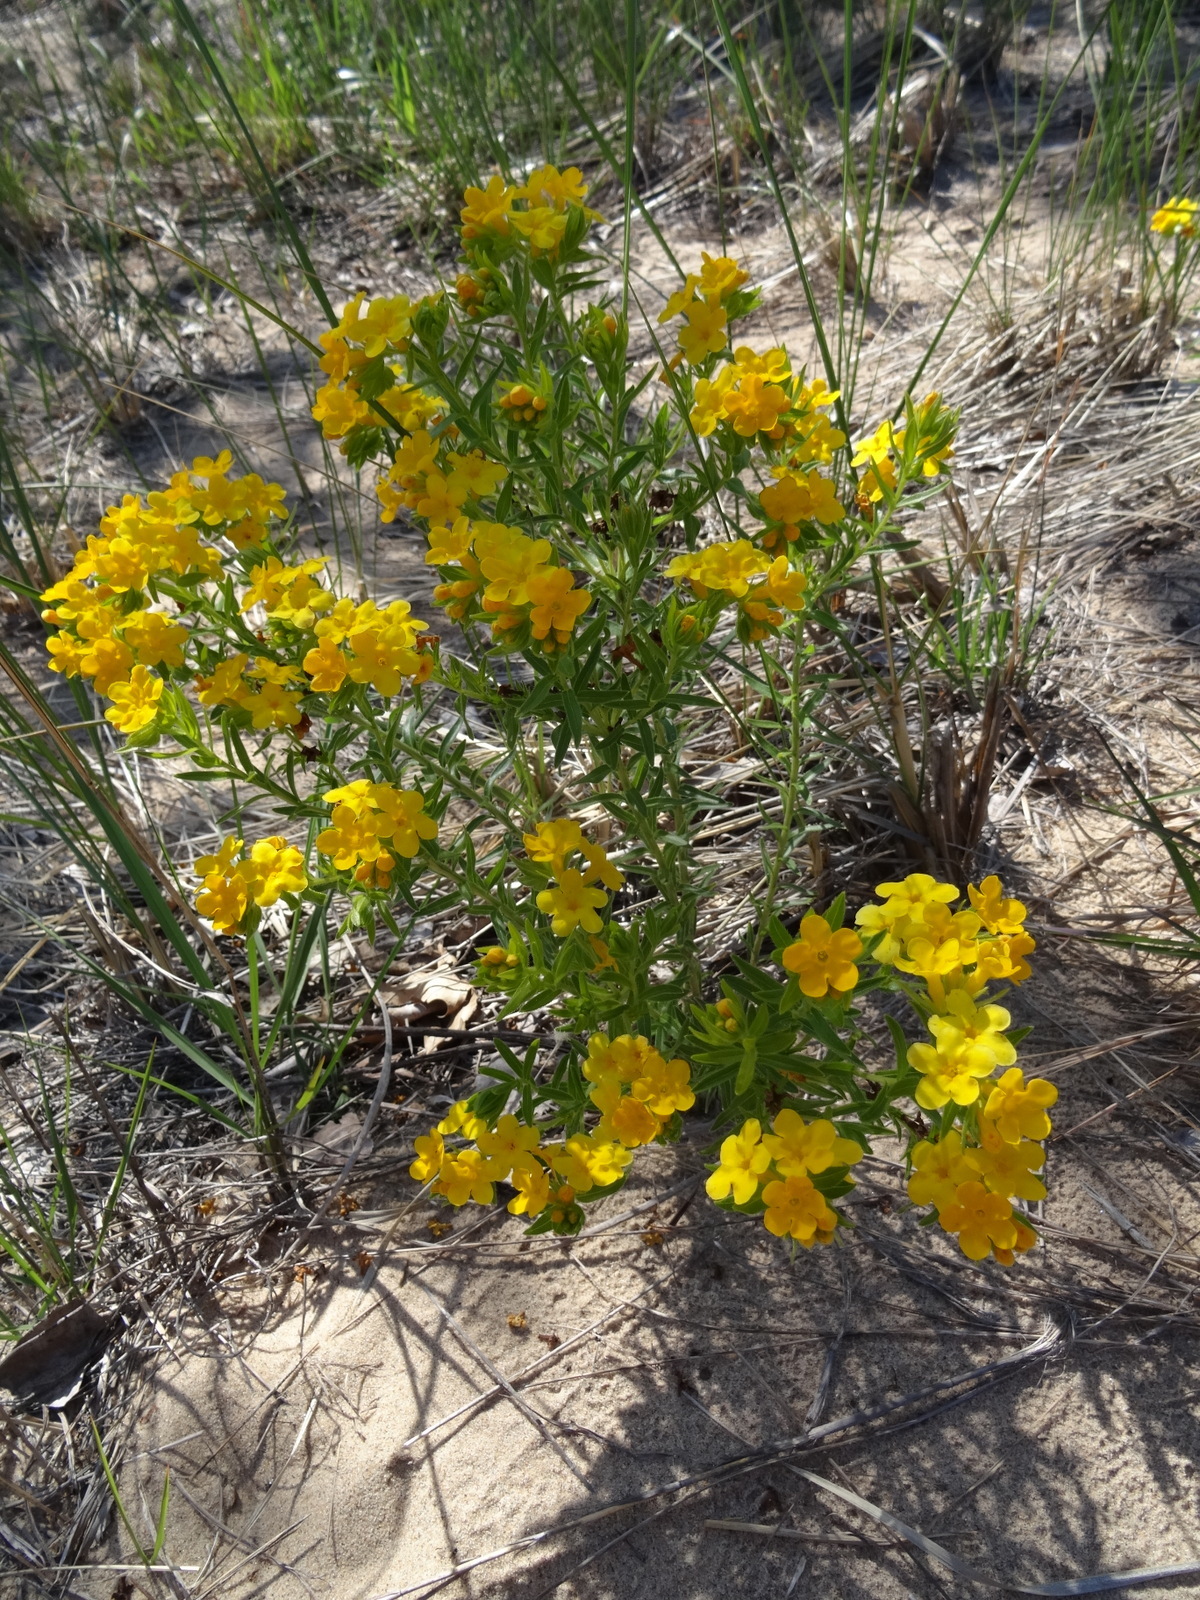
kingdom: Plantae
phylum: Tracheophyta
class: Magnoliopsida
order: Boraginales
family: Boraginaceae
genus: Lithospermum
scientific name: Lithospermum caroliniense
